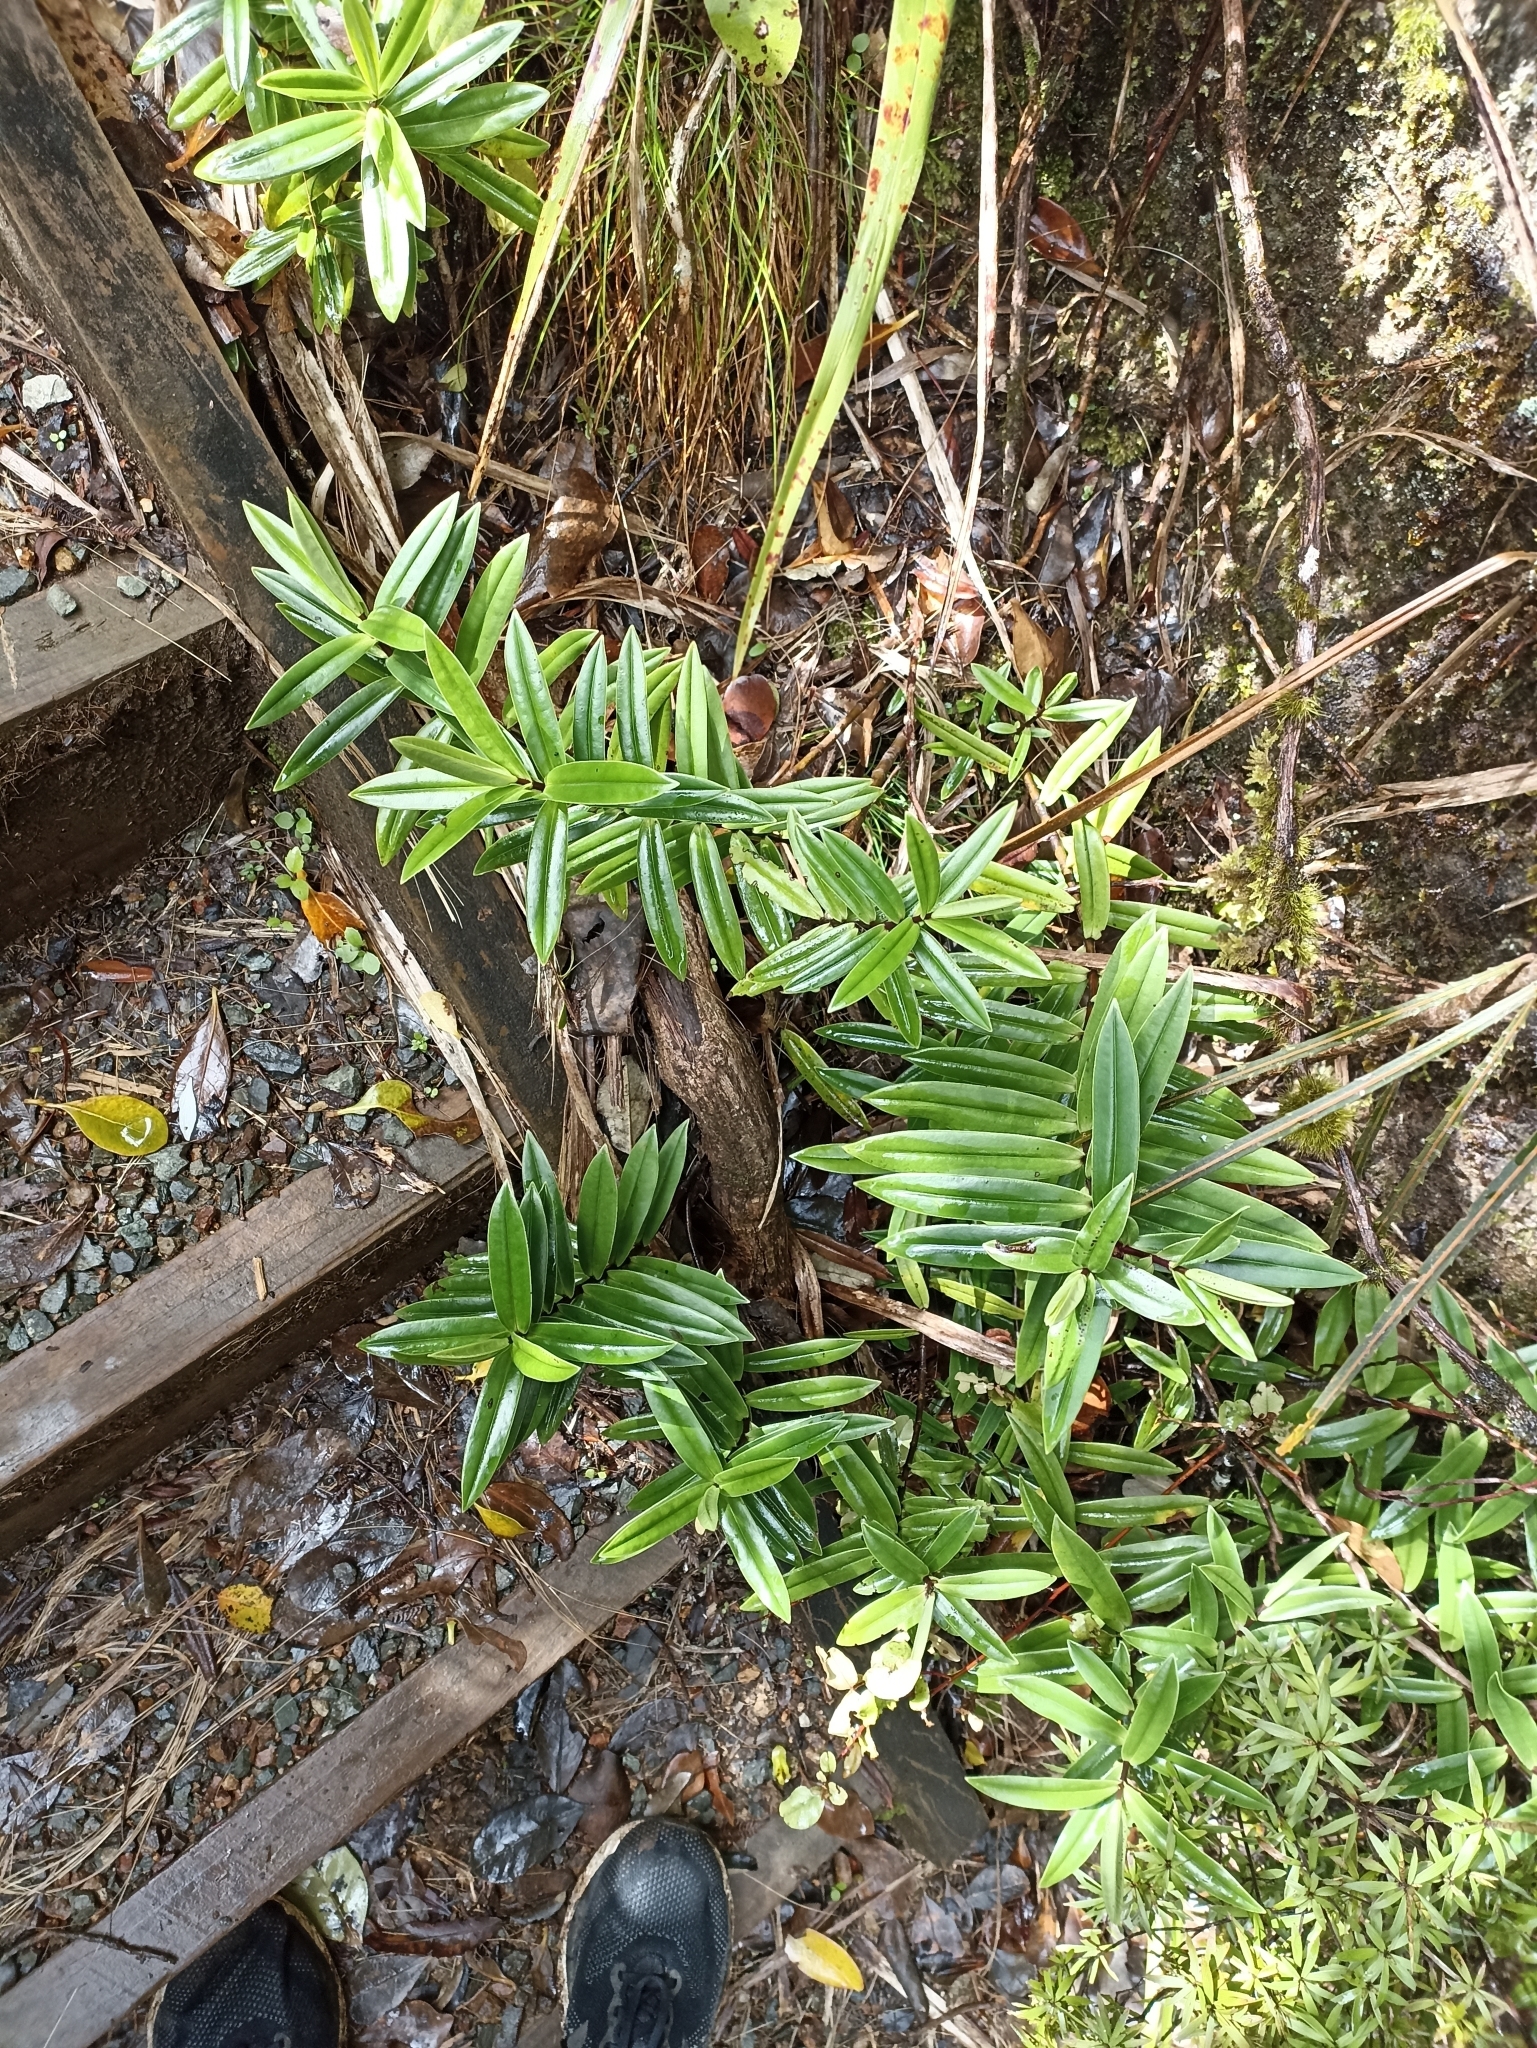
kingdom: Plantae
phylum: Tracheophyta
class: Magnoliopsida
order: Lamiales
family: Plantaginaceae
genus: Veronica
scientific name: Veronica macrocarpa
